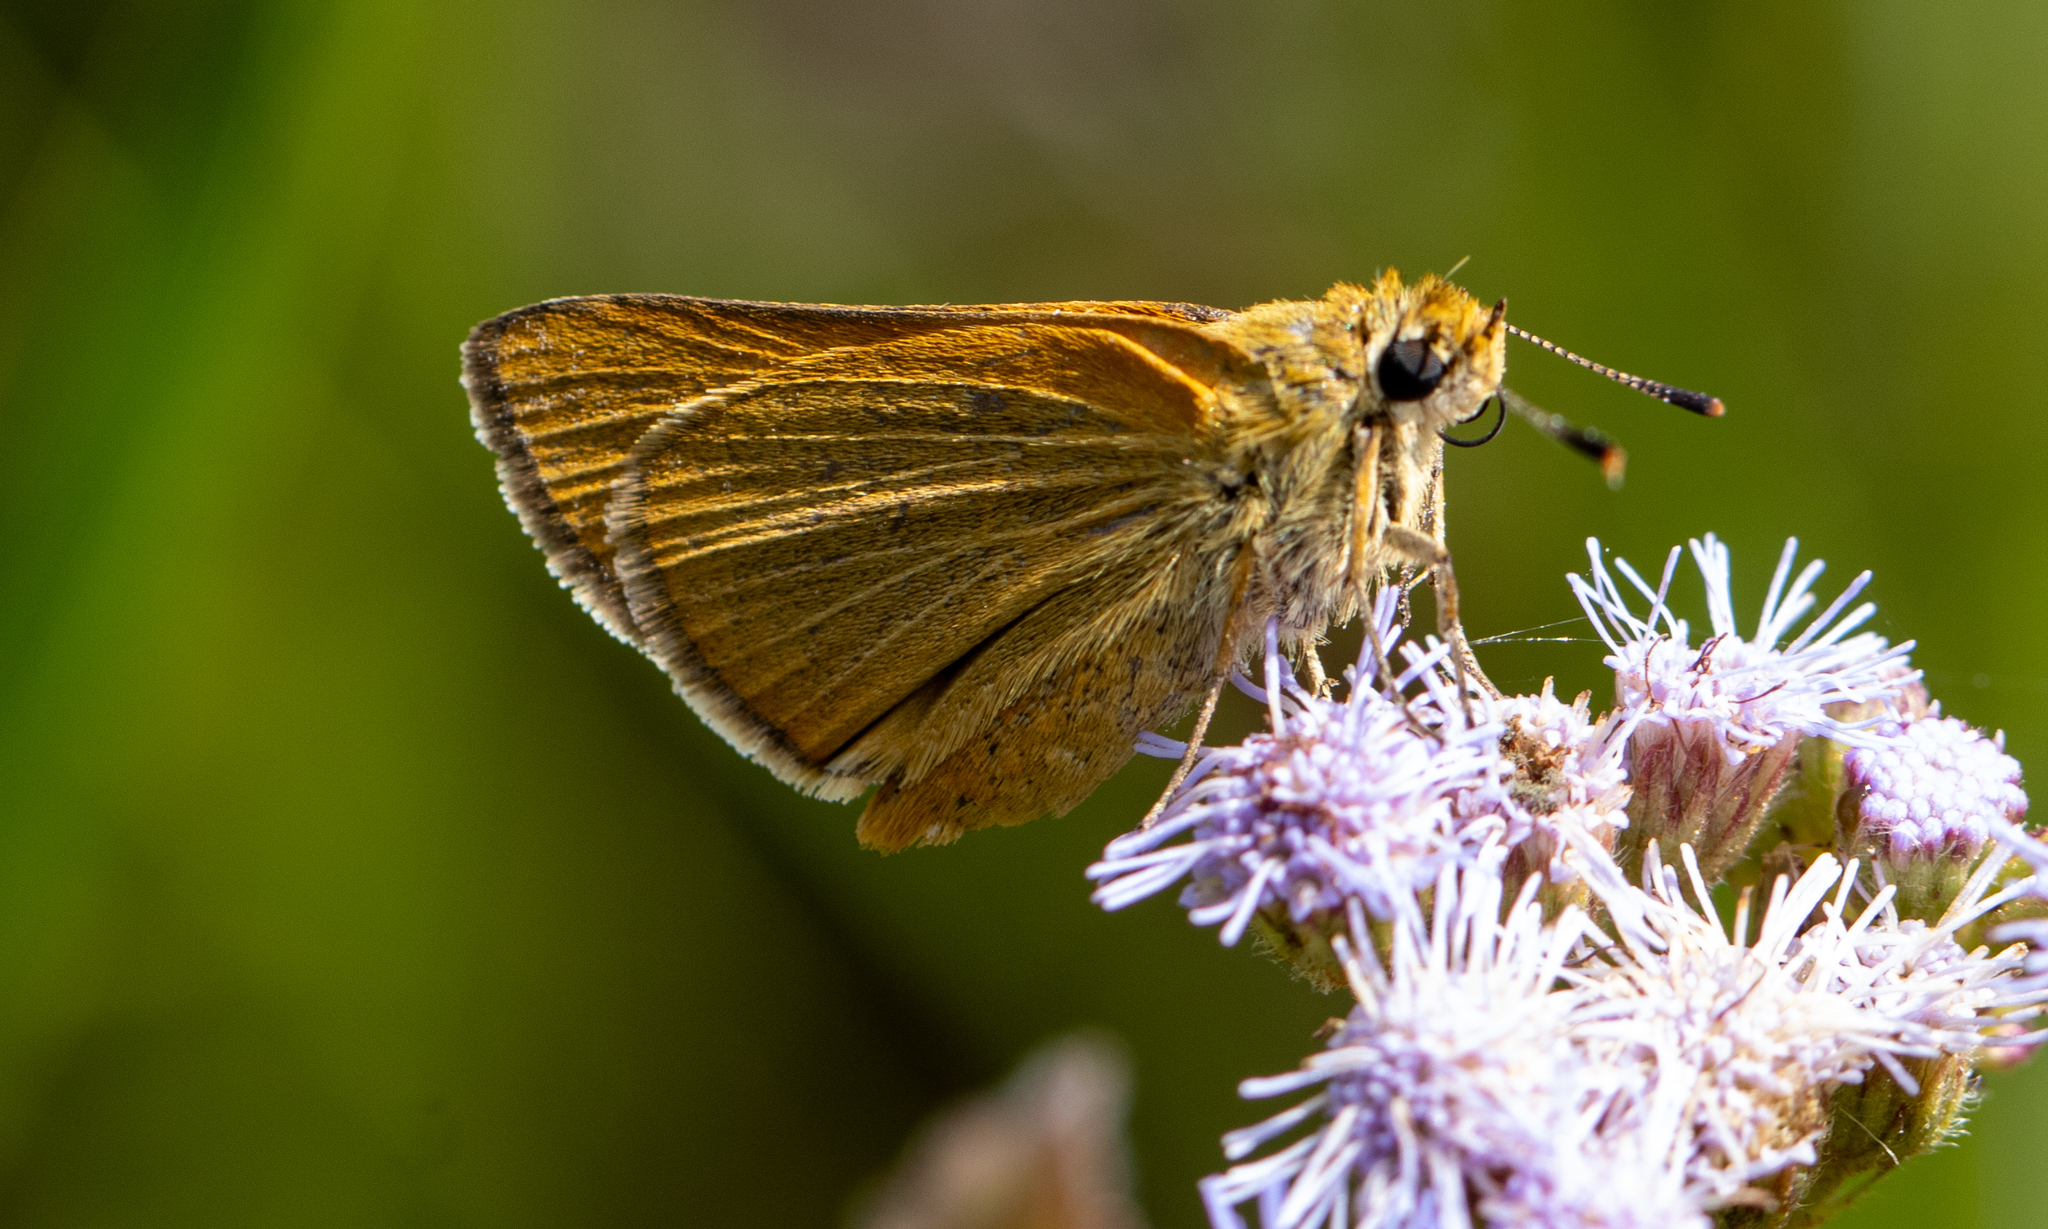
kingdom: Animalia
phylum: Arthropoda
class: Insecta
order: Lepidoptera
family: Hesperiidae
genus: Atrytone
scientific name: Atrytone arogos
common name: Arogos skipper
